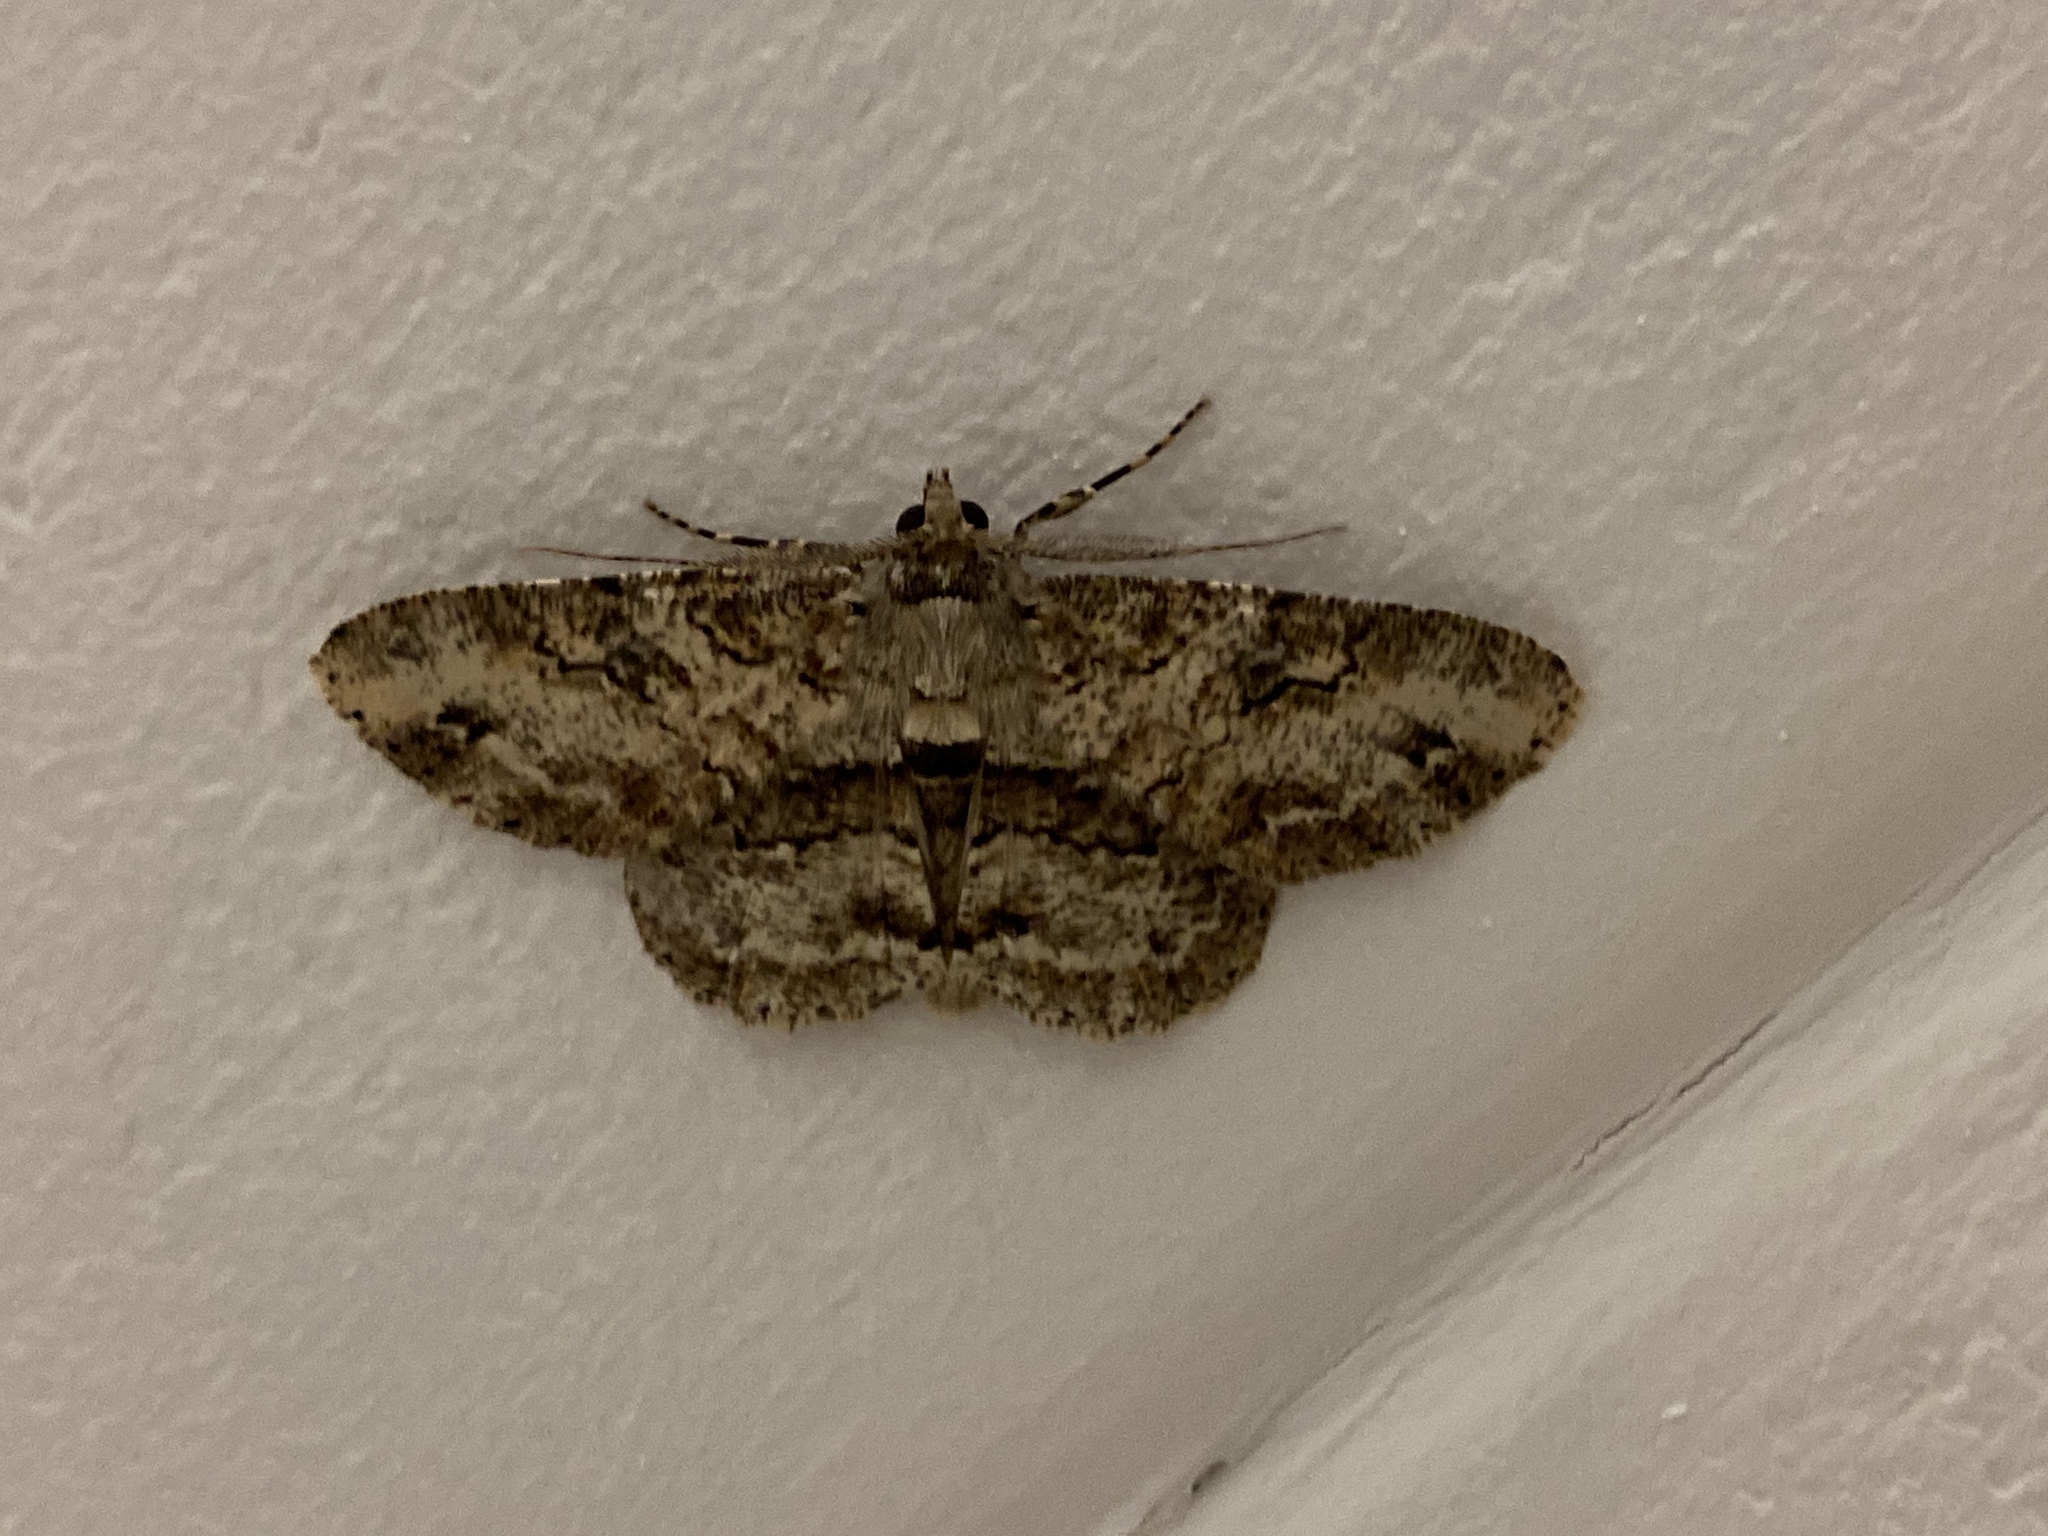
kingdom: Animalia
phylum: Arthropoda
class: Insecta
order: Lepidoptera
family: Geometridae
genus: Cleora
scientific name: Cleora repetita
